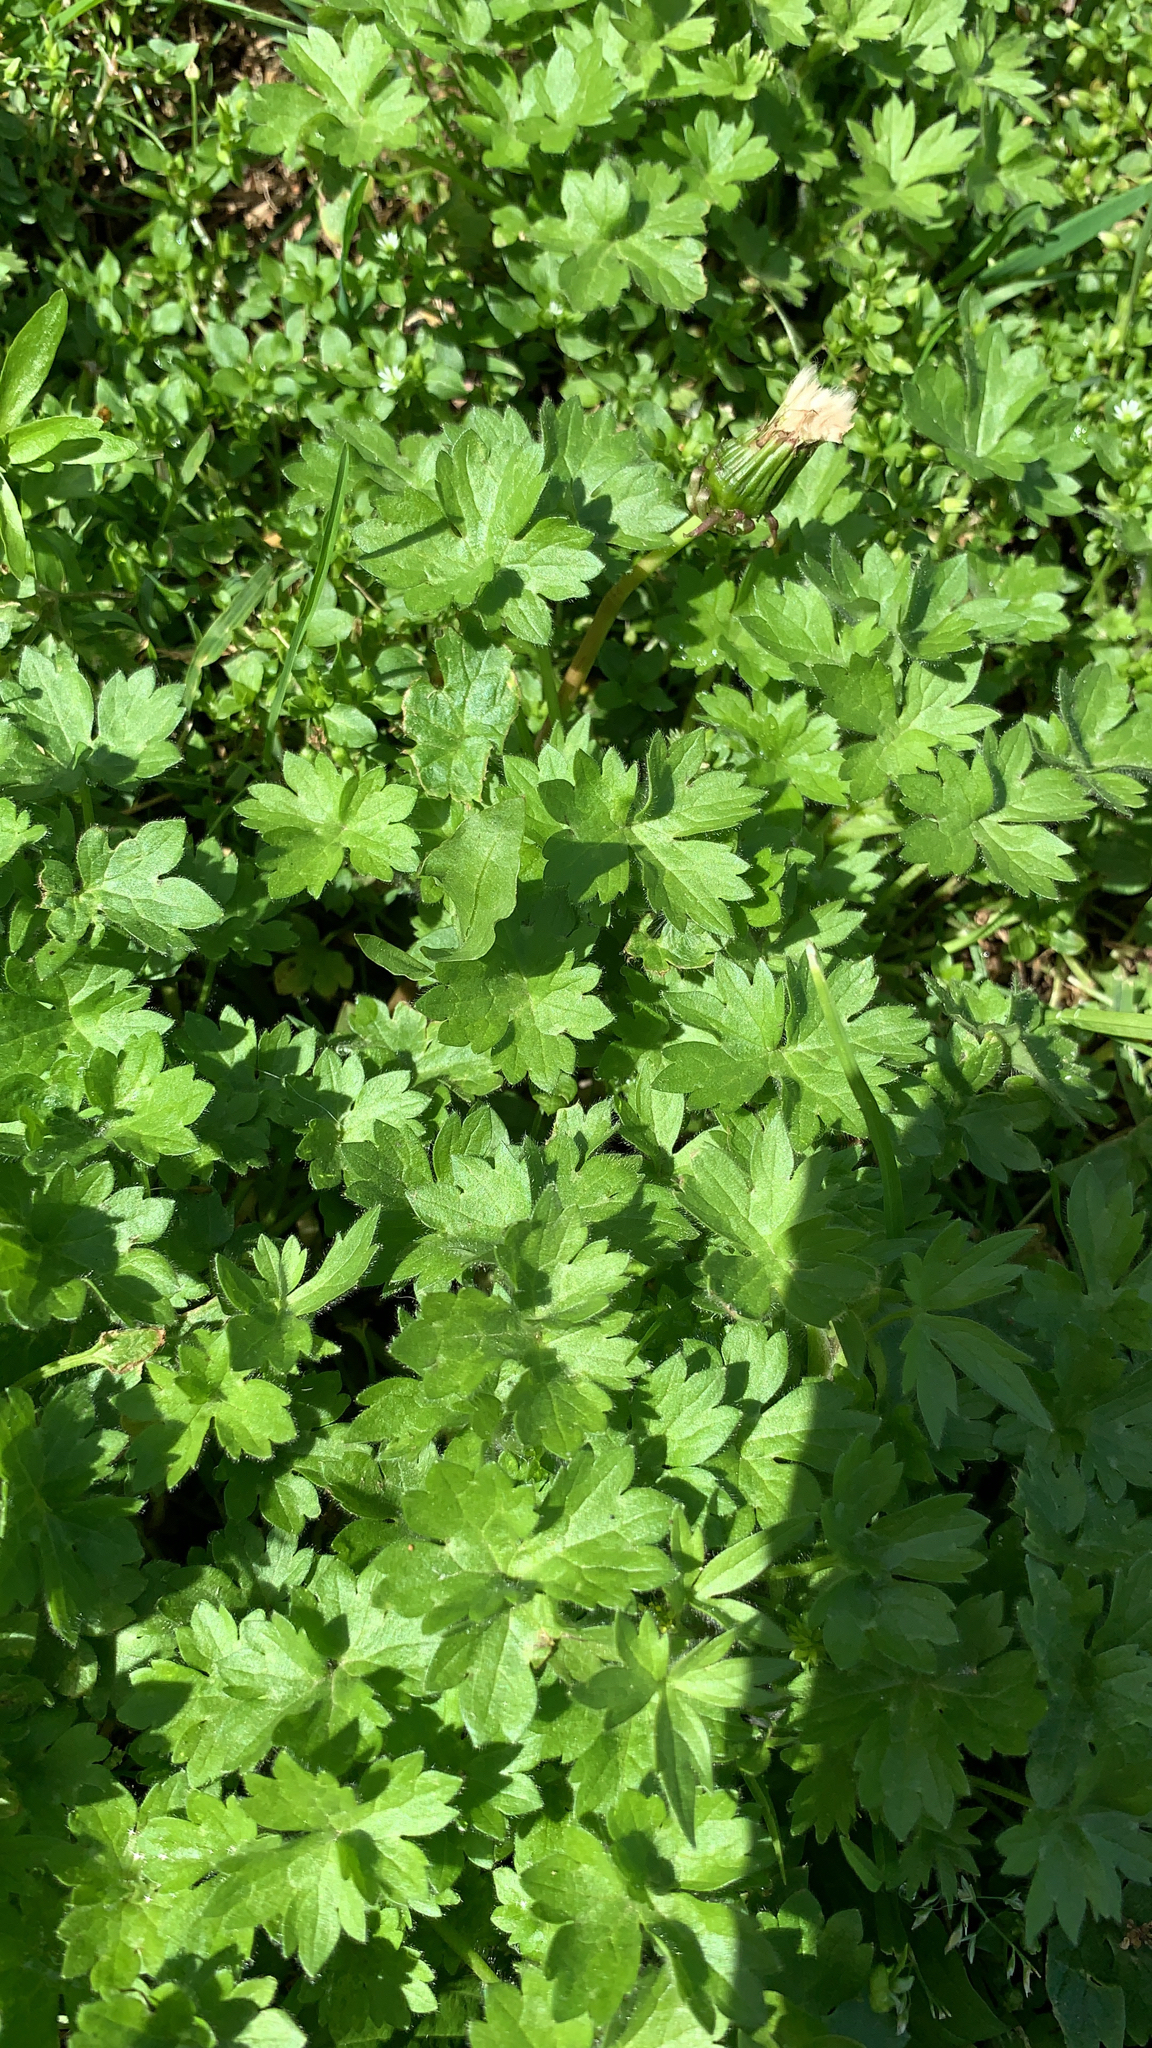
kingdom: Plantae
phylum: Tracheophyta
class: Magnoliopsida
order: Apiales
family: Apiaceae
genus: Bowlesia
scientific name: Bowlesia incana
